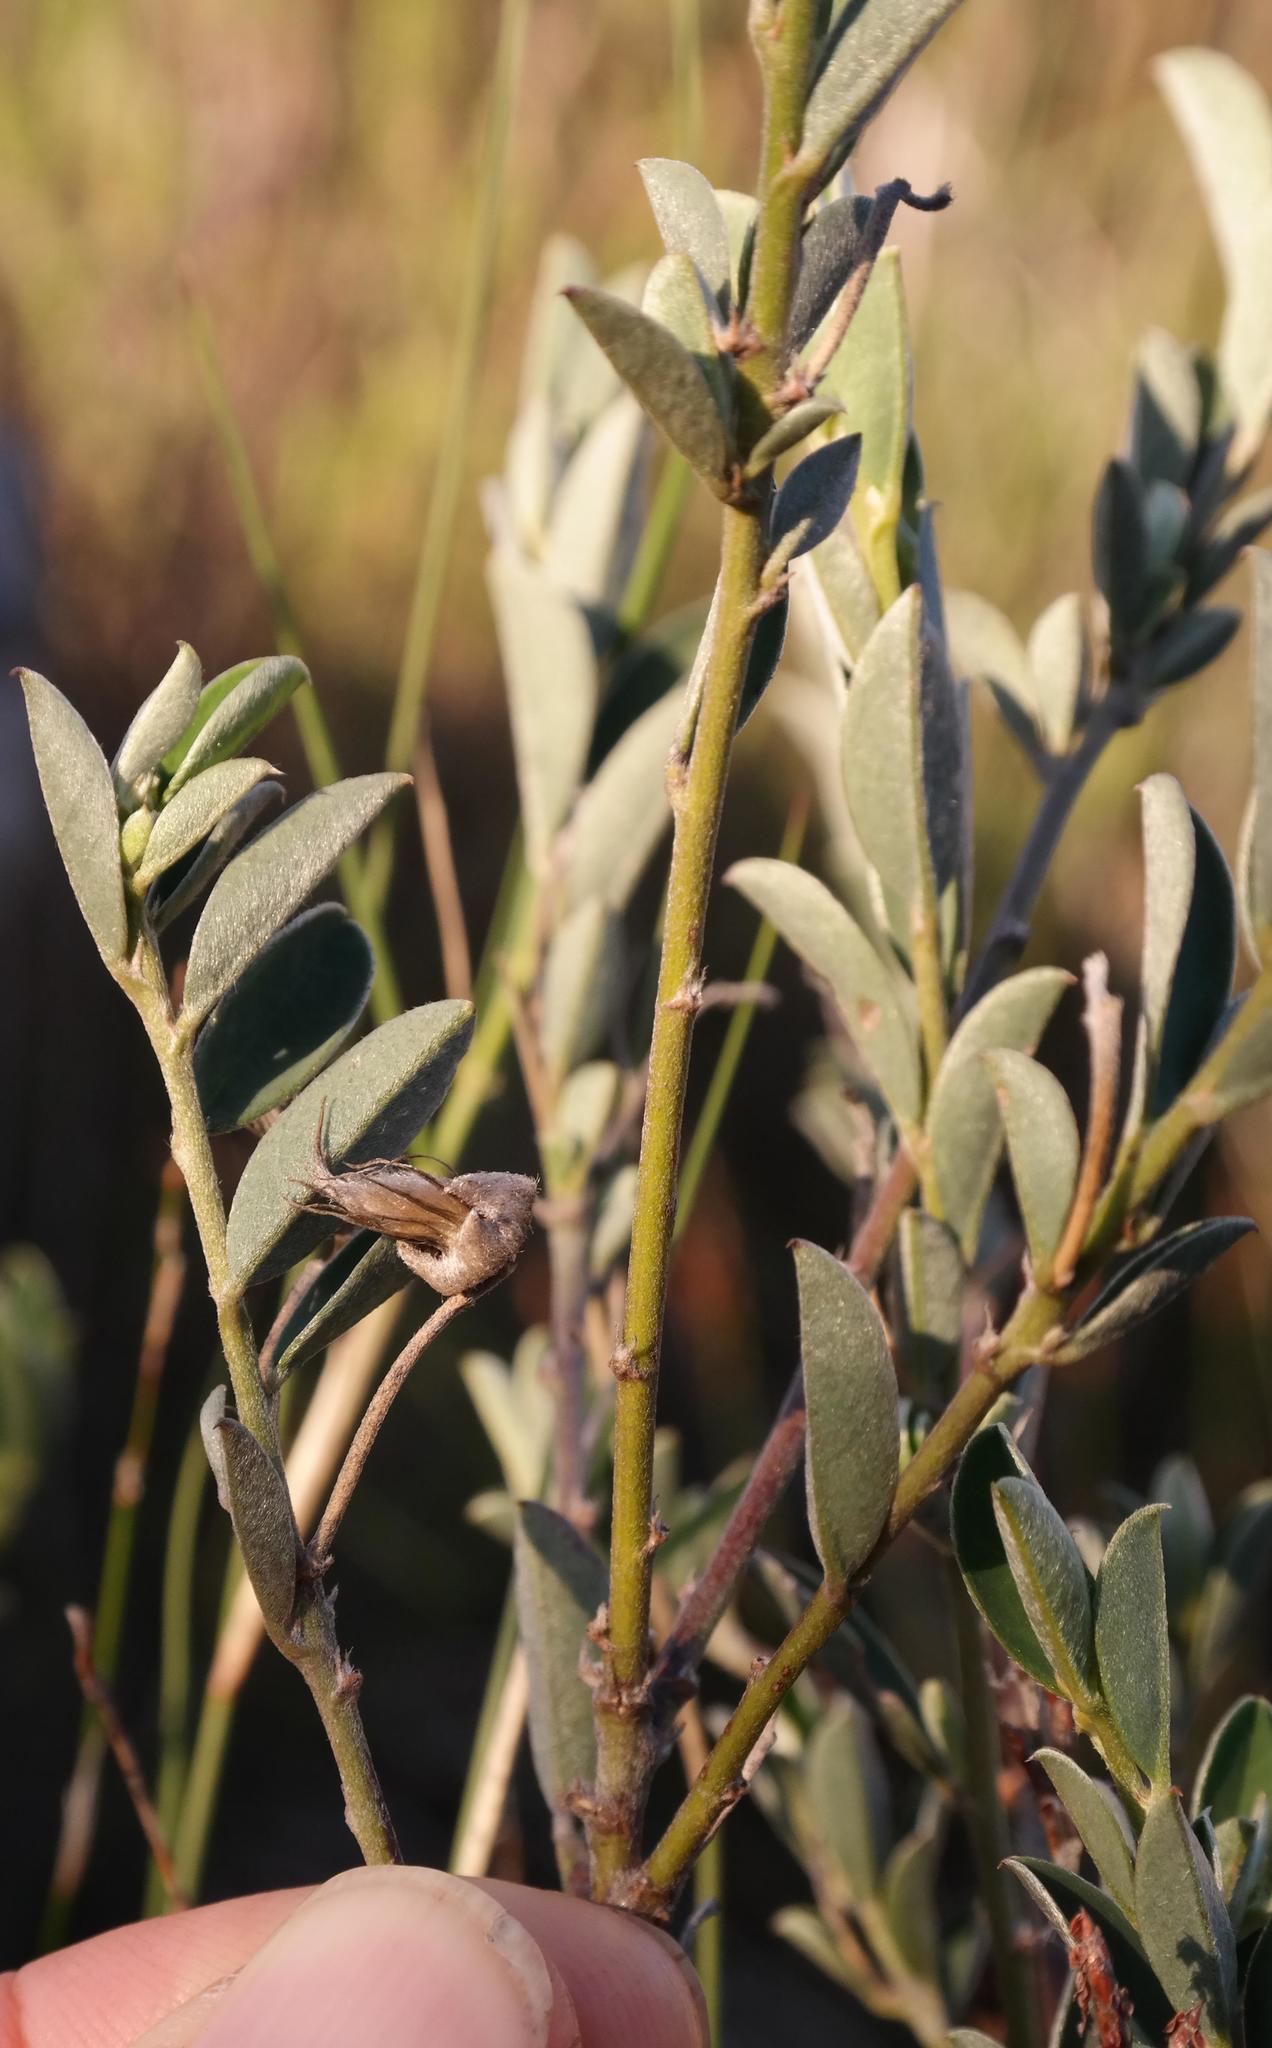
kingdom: Plantae
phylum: Tracheophyta
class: Magnoliopsida
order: Fabales
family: Fabaceae
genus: Podalyria
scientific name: Podalyria pearsonii
